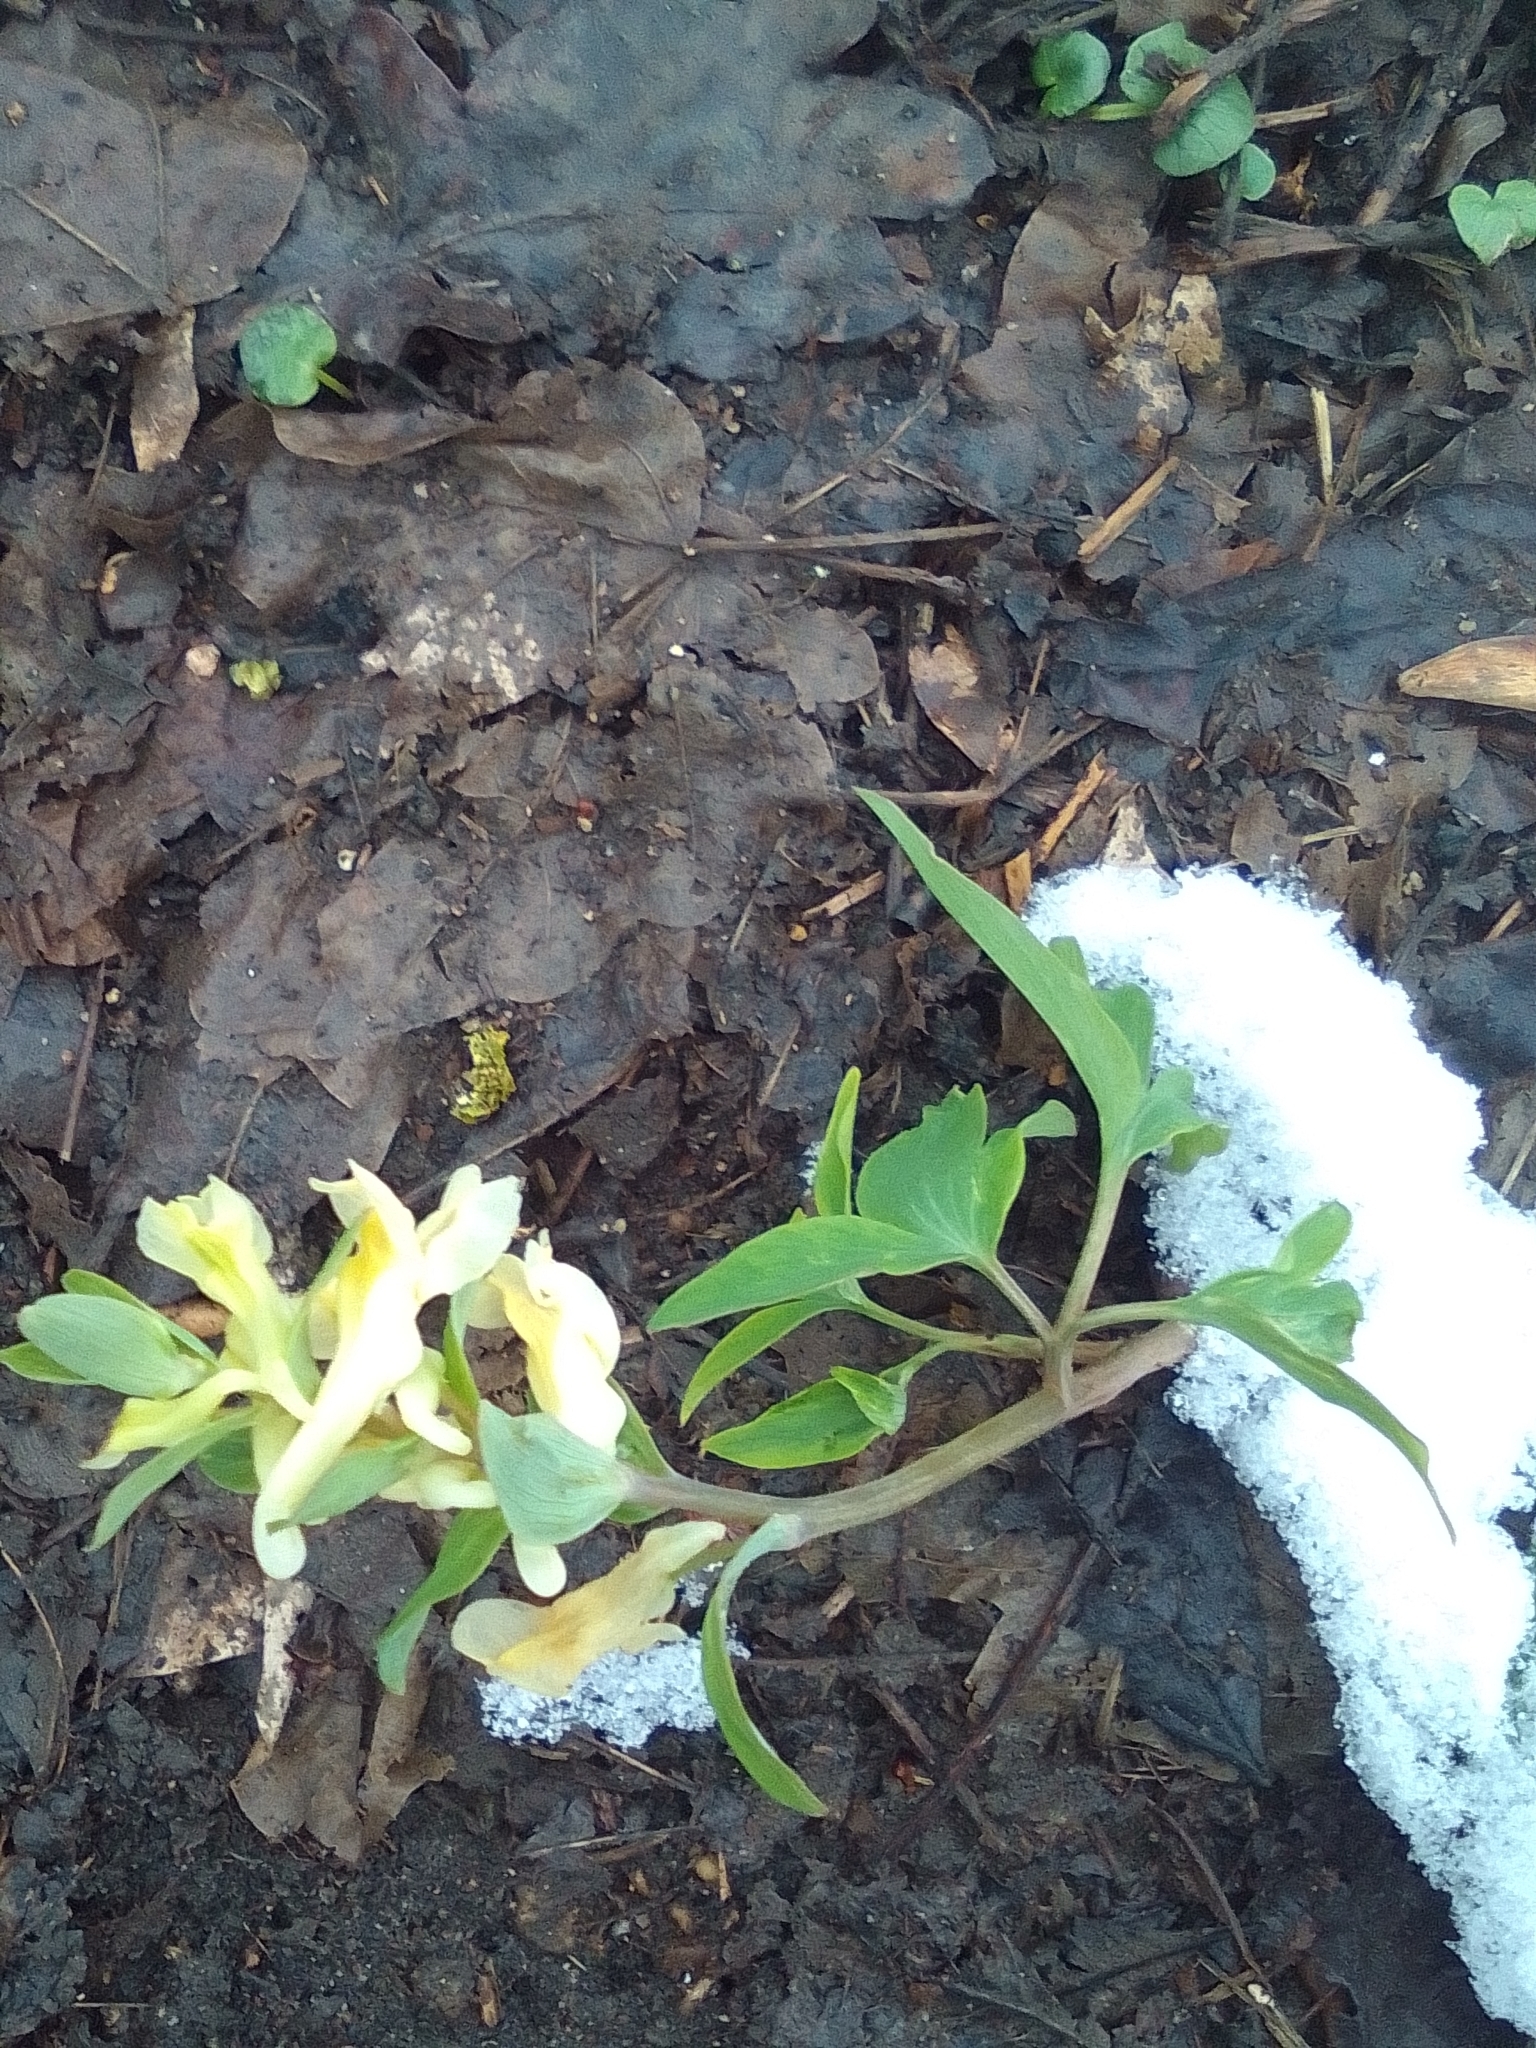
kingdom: Plantae
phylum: Tracheophyta
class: Magnoliopsida
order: Ranunculales
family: Papaveraceae
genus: Corydalis
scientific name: Corydalis cava
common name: Hollowroot
